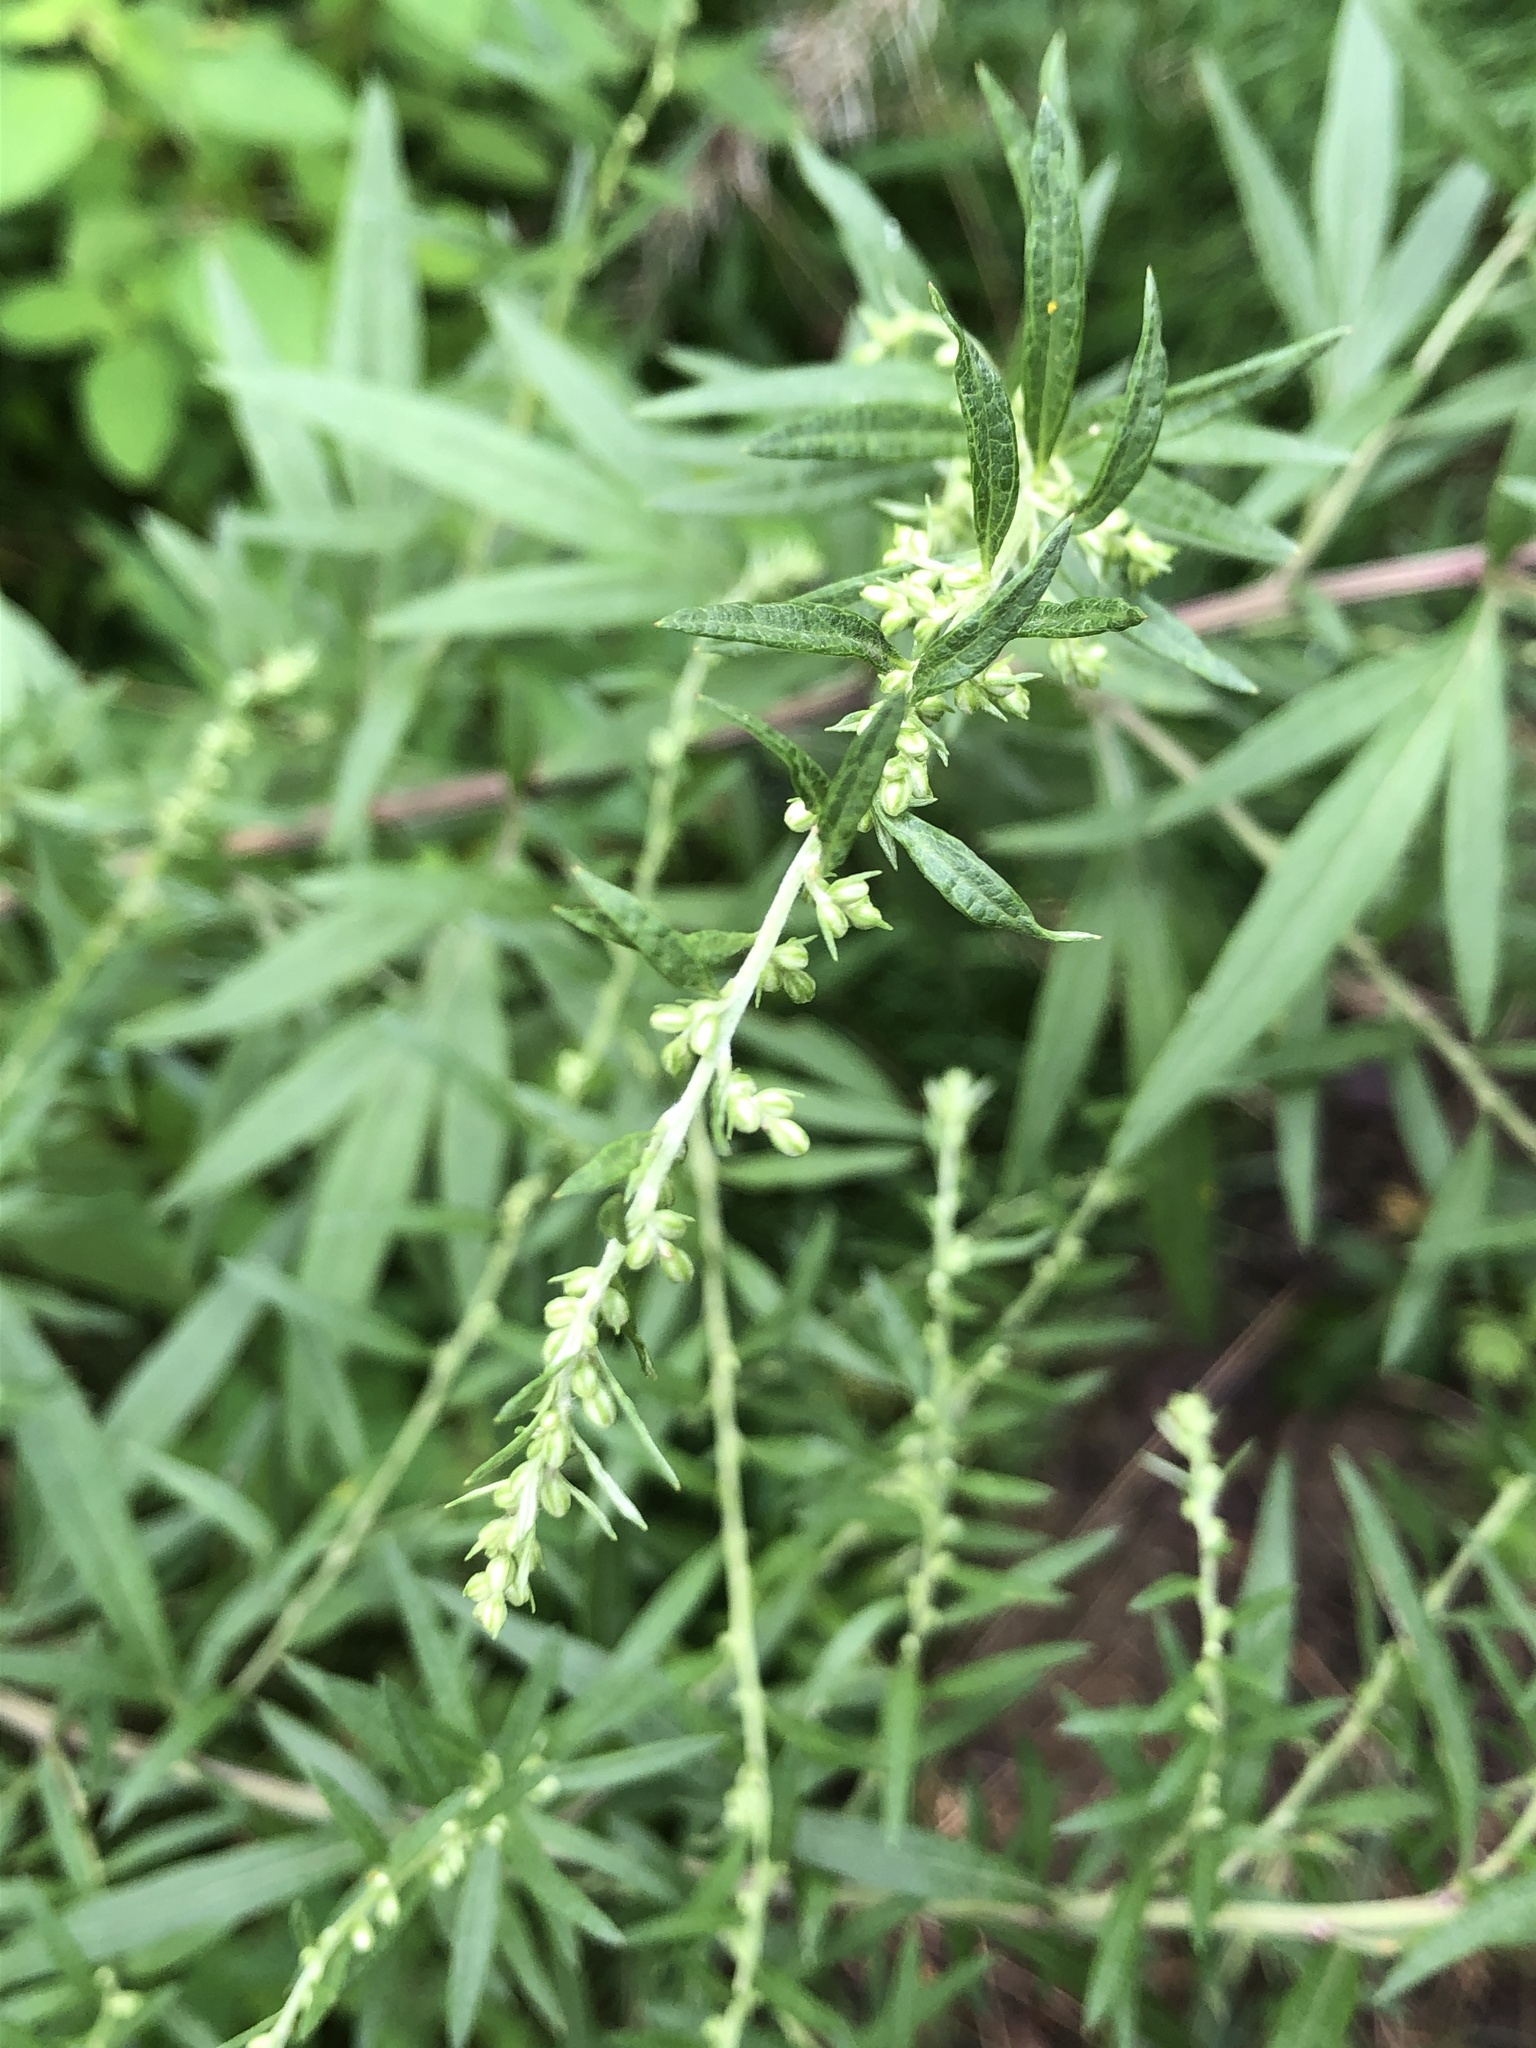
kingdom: Plantae
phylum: Tracheophyta
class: Magnoliopsida
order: Asterales
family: Asteraceae
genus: Artemisia
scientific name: Artemisia vulgaris
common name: Mugwort
